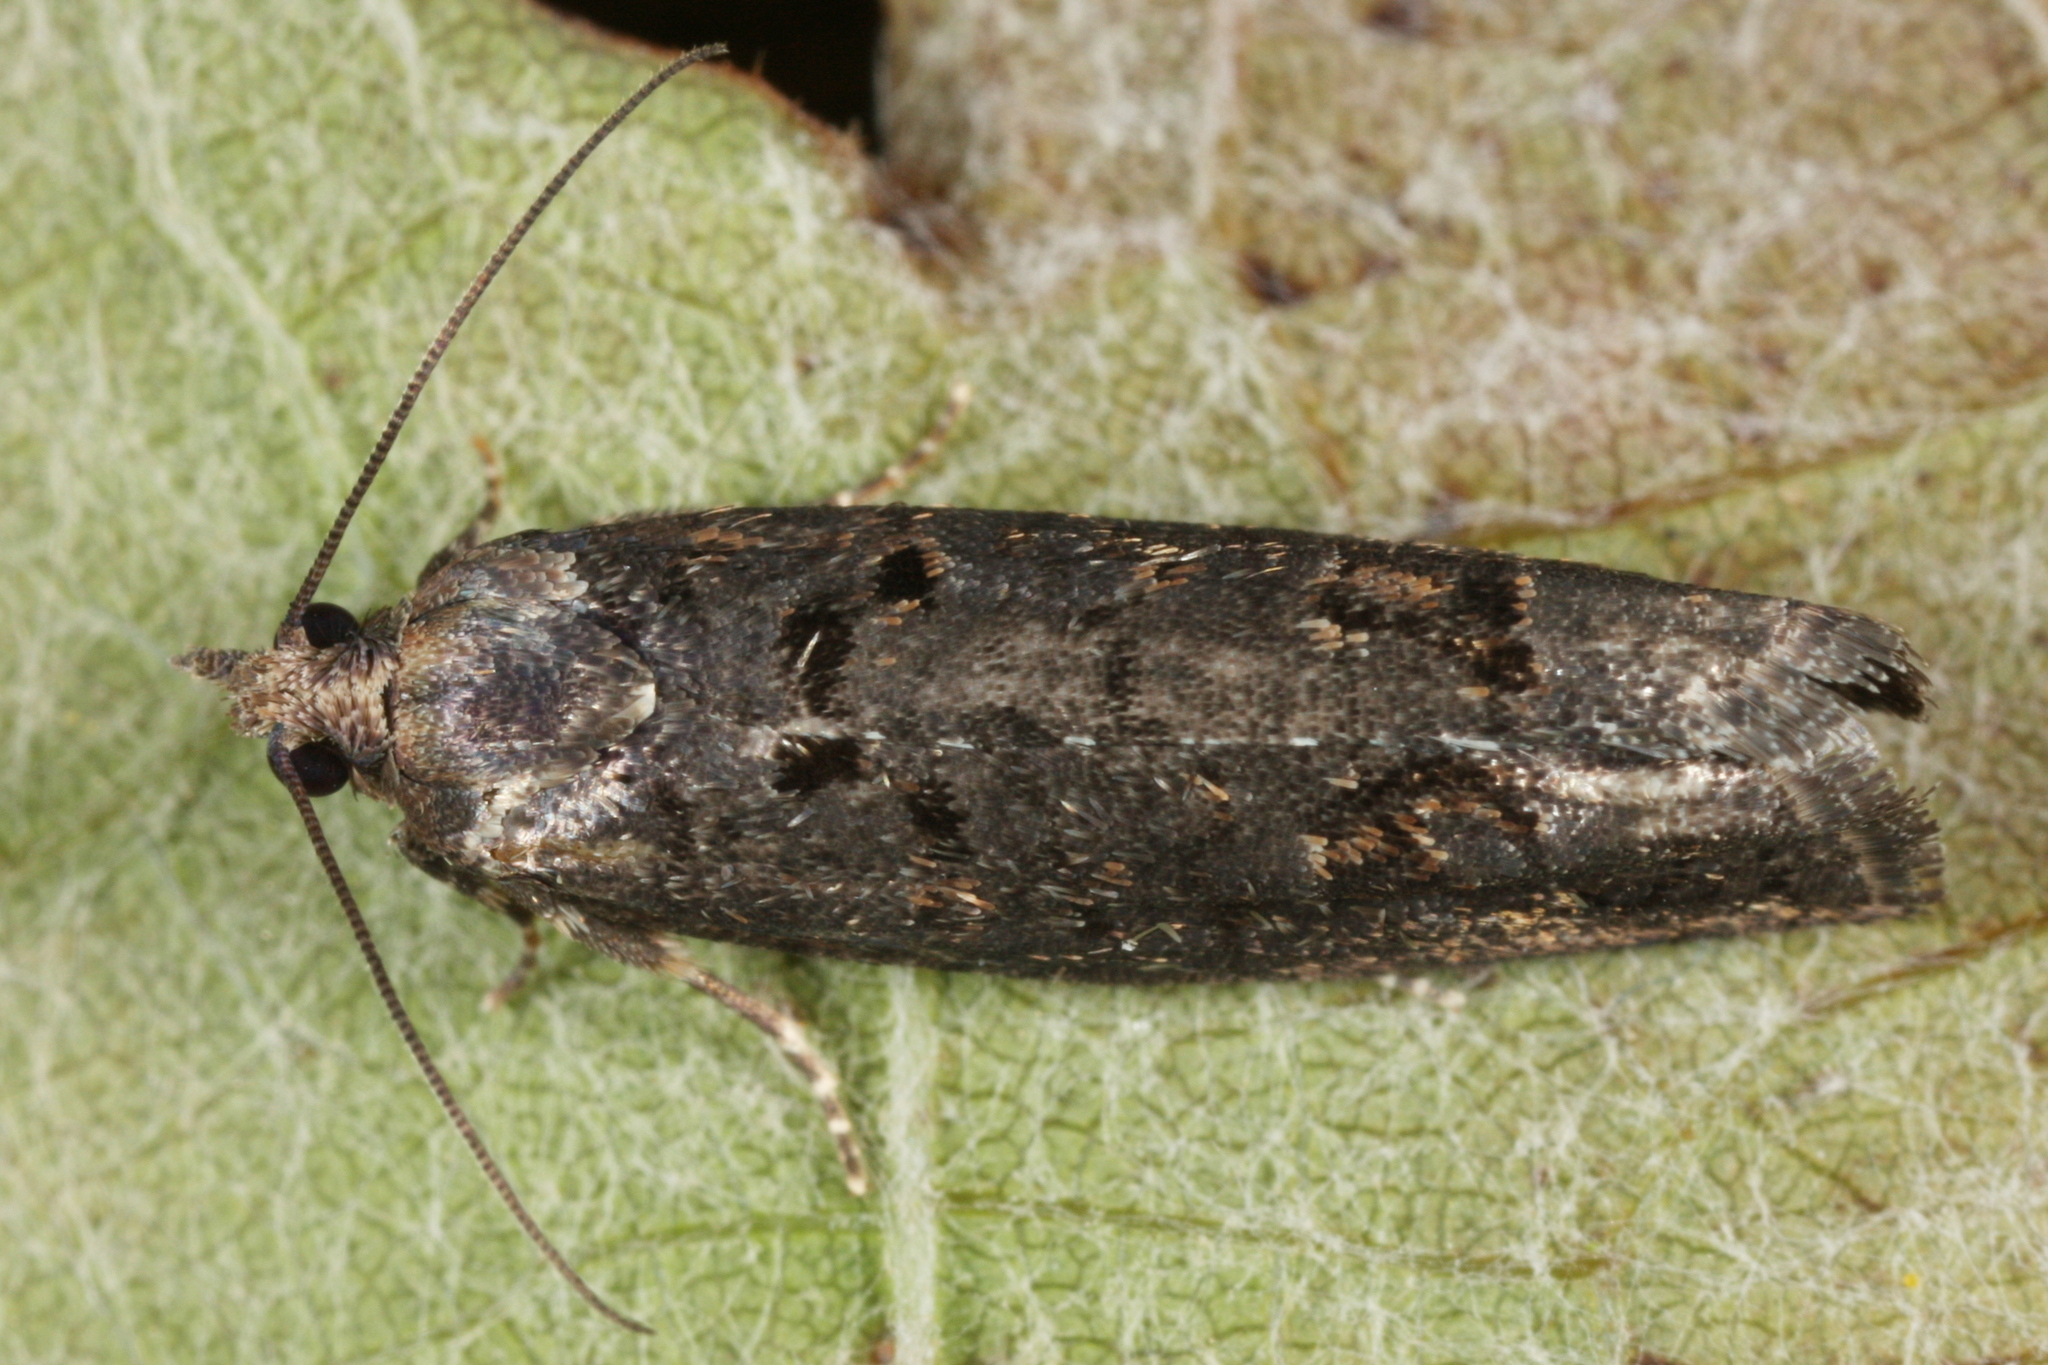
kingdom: Animalia
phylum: Arthropoda
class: Insecta
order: Lepidoptera
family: Tortricidae
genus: Epinotia
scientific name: Epinotia maculana
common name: Dark aspen bell
